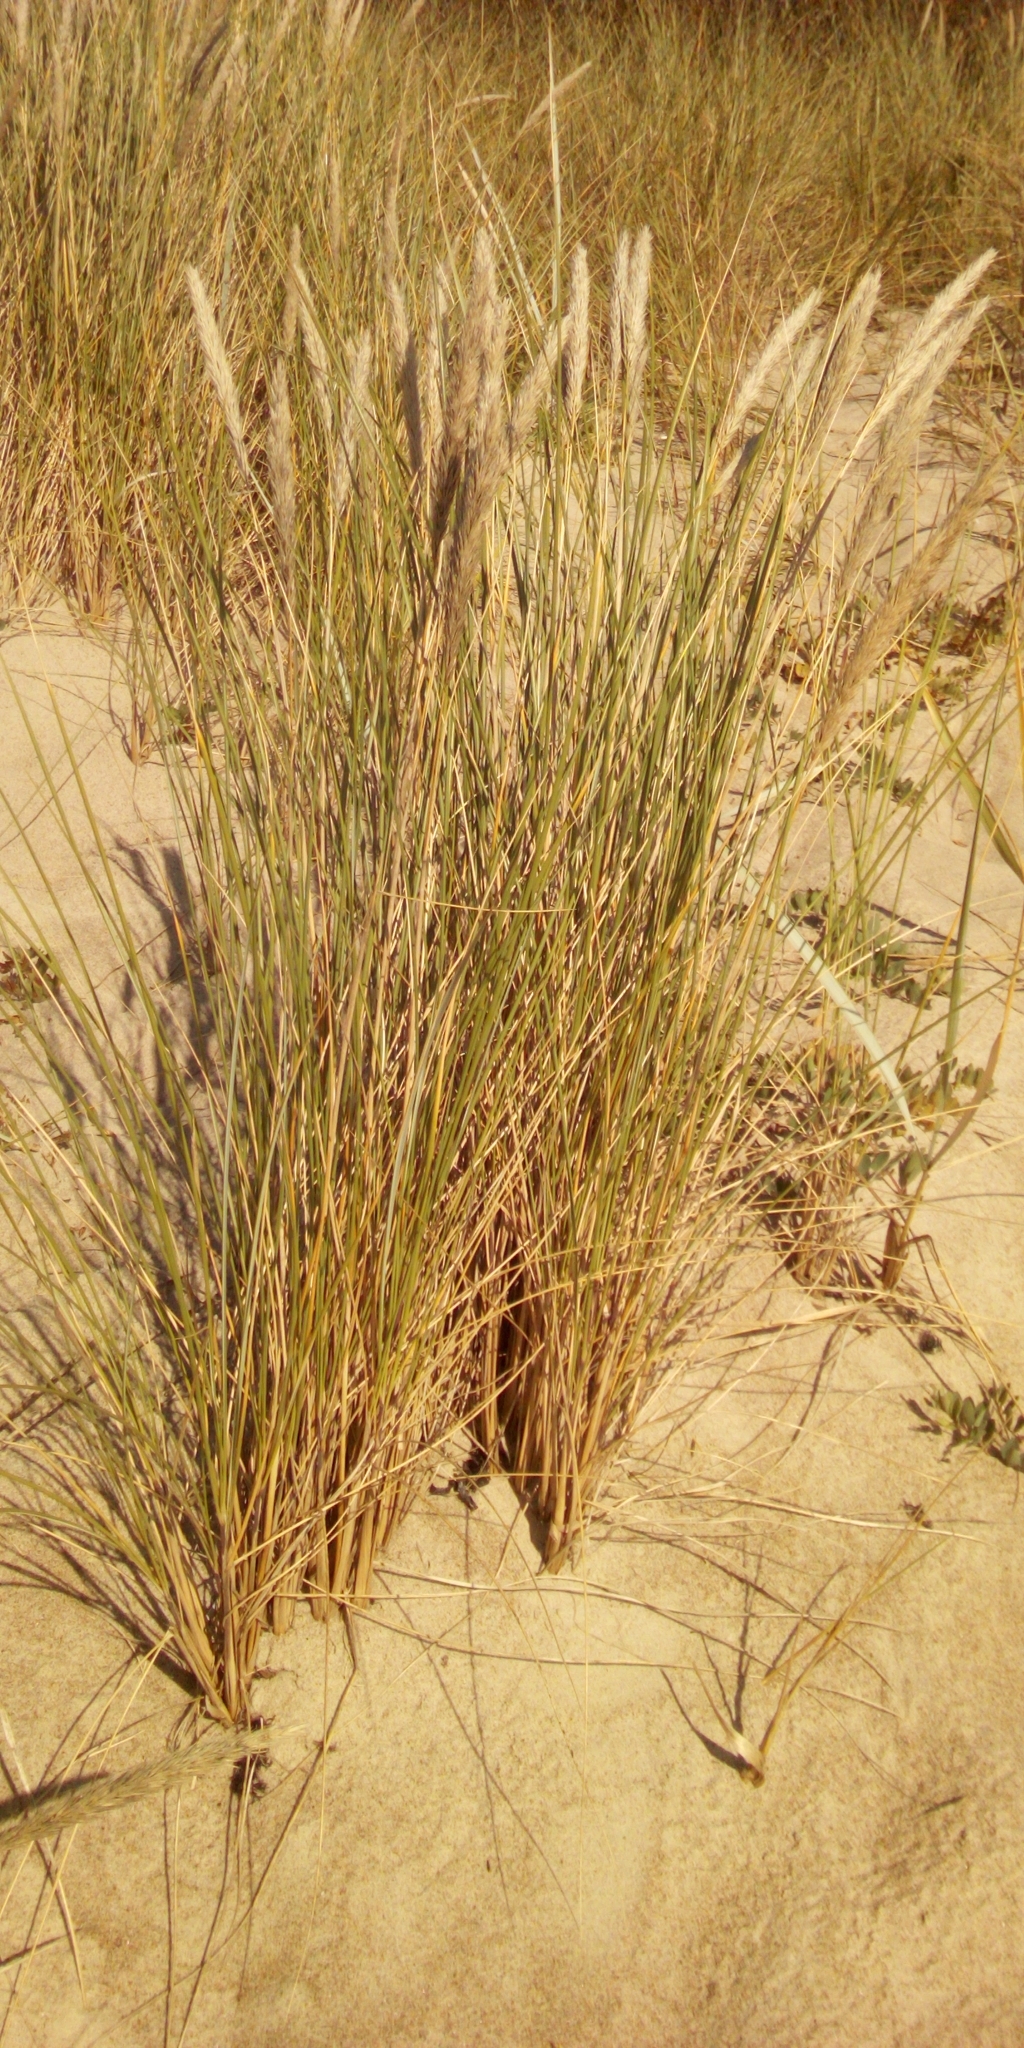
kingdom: Plantae
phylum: Tracheophyta
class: Liliopsida
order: Poales
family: Poaceae
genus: Calamagrostis
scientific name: Calamagrostis arenaria
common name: European beachgrass
